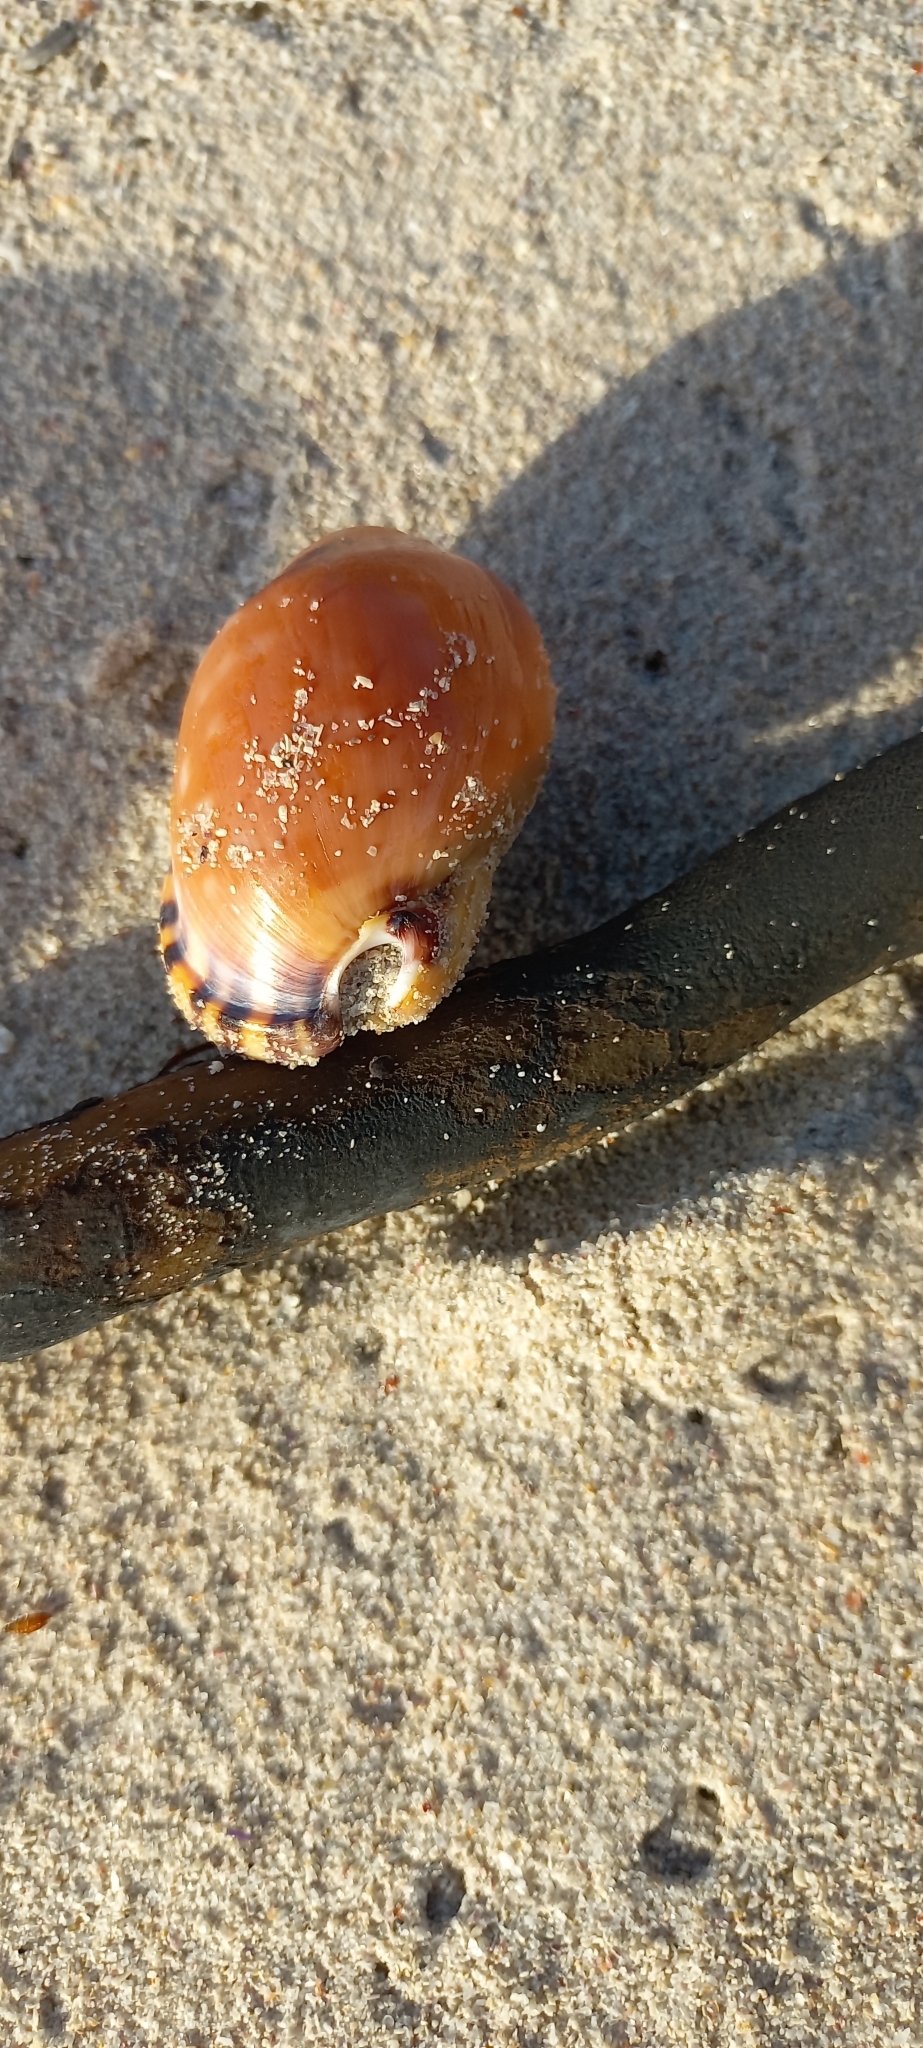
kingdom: Animalia
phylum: Mollusca
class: Gastropoda
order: Littorinimorpha
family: Cassidae
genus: Semicassis
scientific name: Semicassis zeylanica
